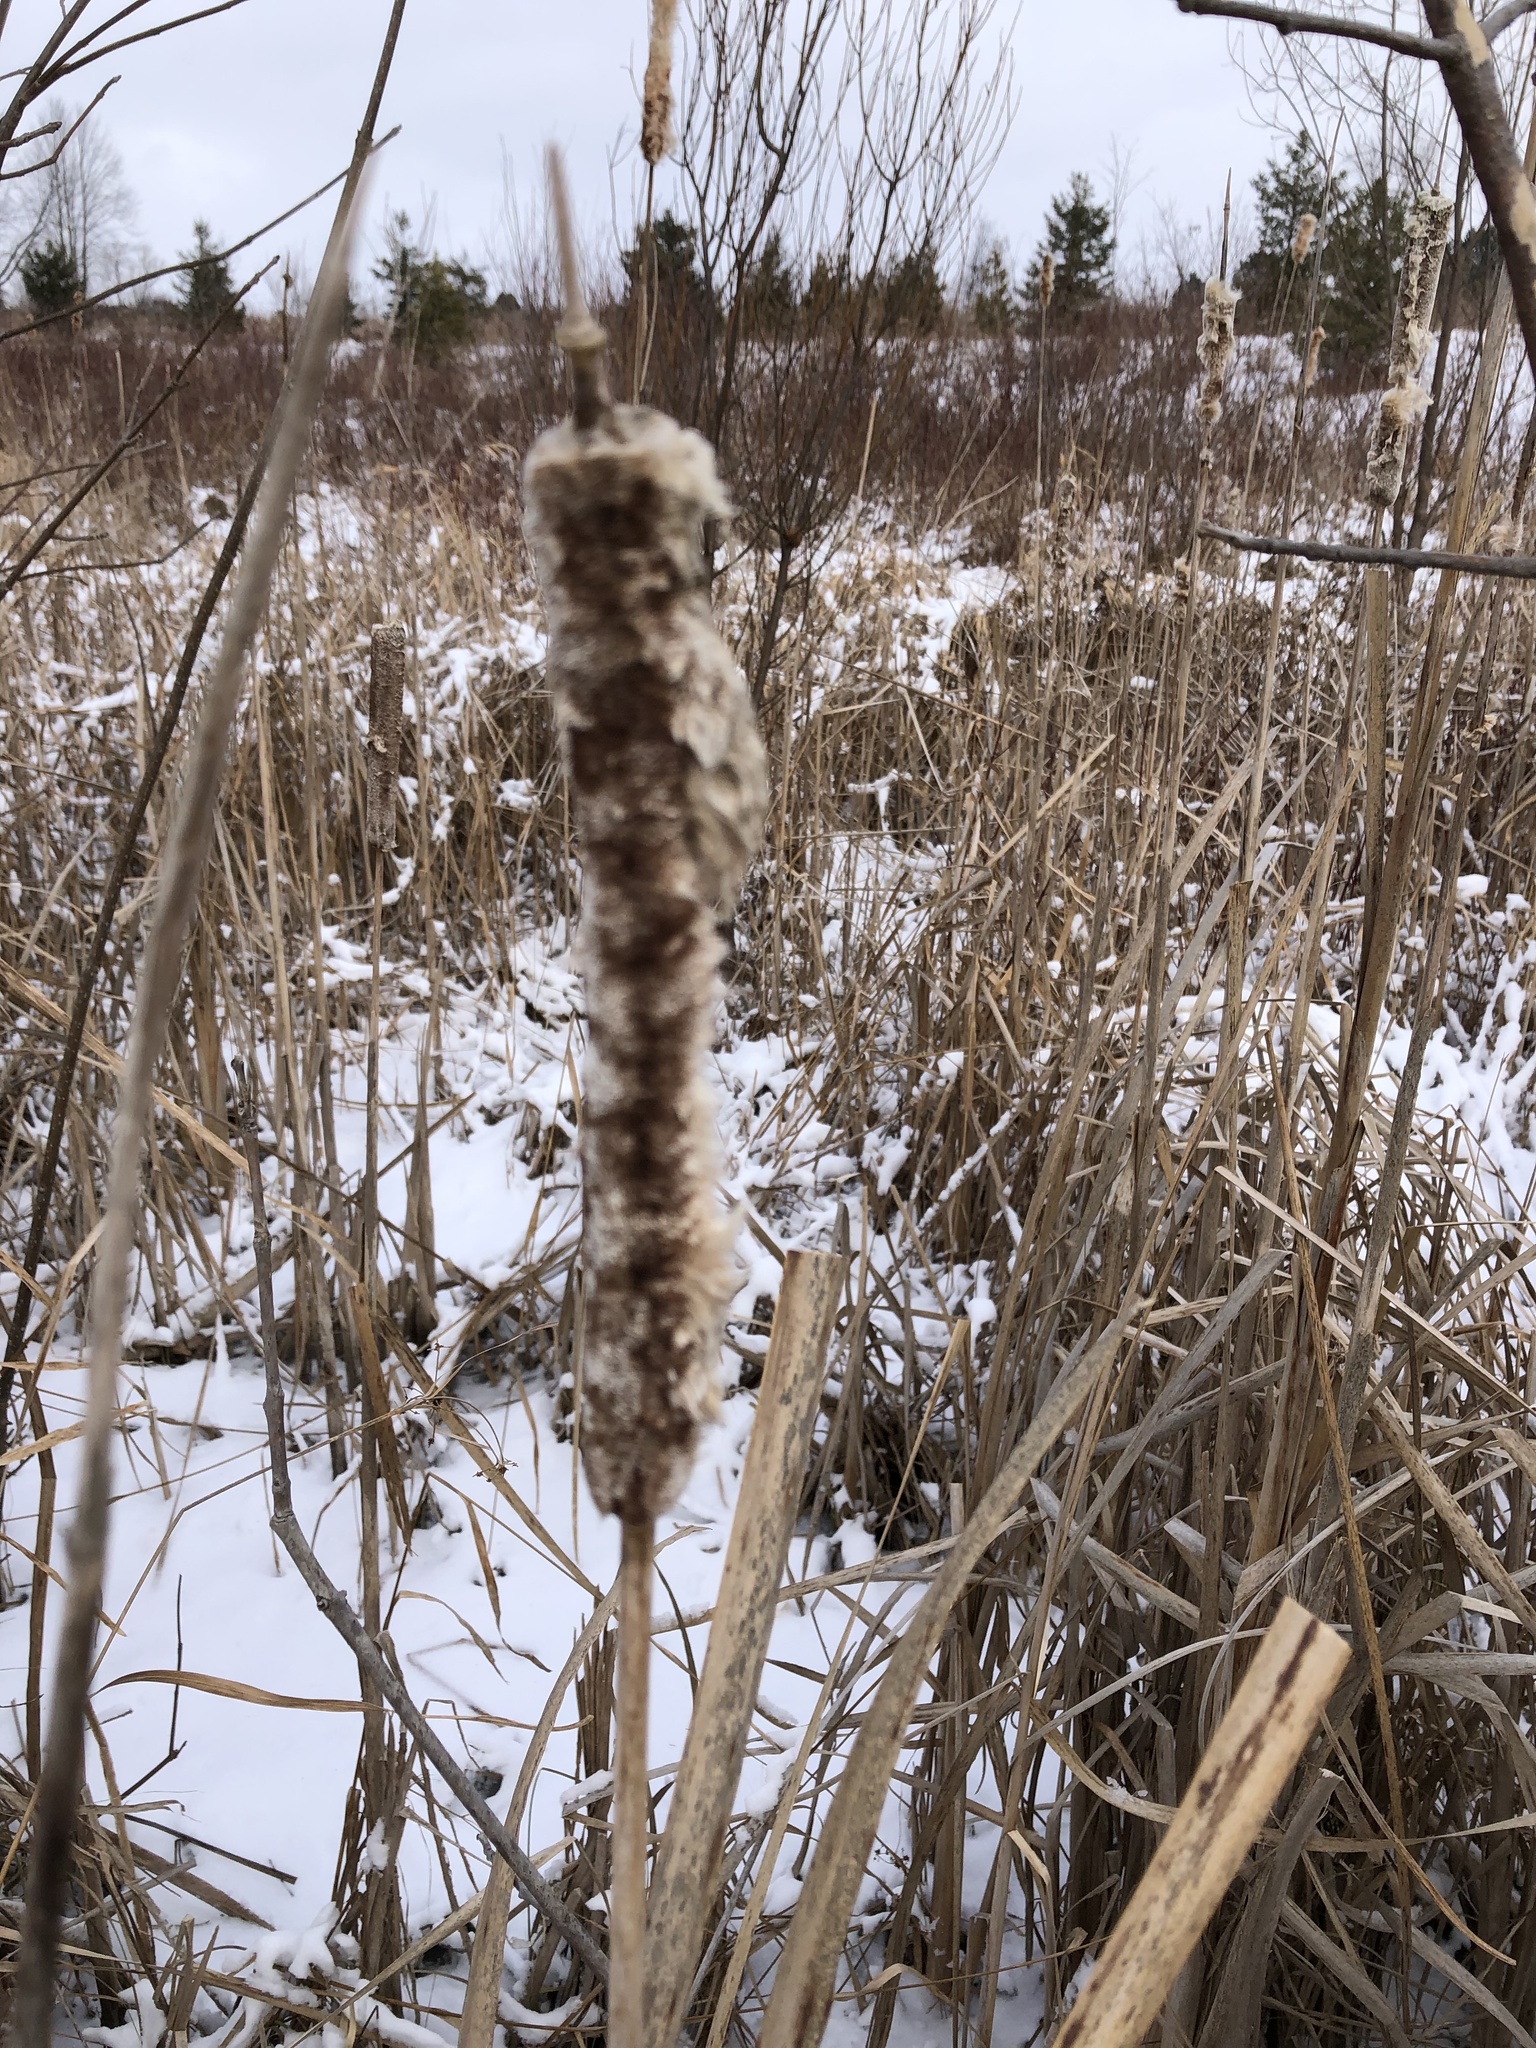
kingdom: Plantae
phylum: Tracheophyta
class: Liliopsida
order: Poales
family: Typhaceae
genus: Typha
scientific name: Typha latifolia
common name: Broadleaf cattail
